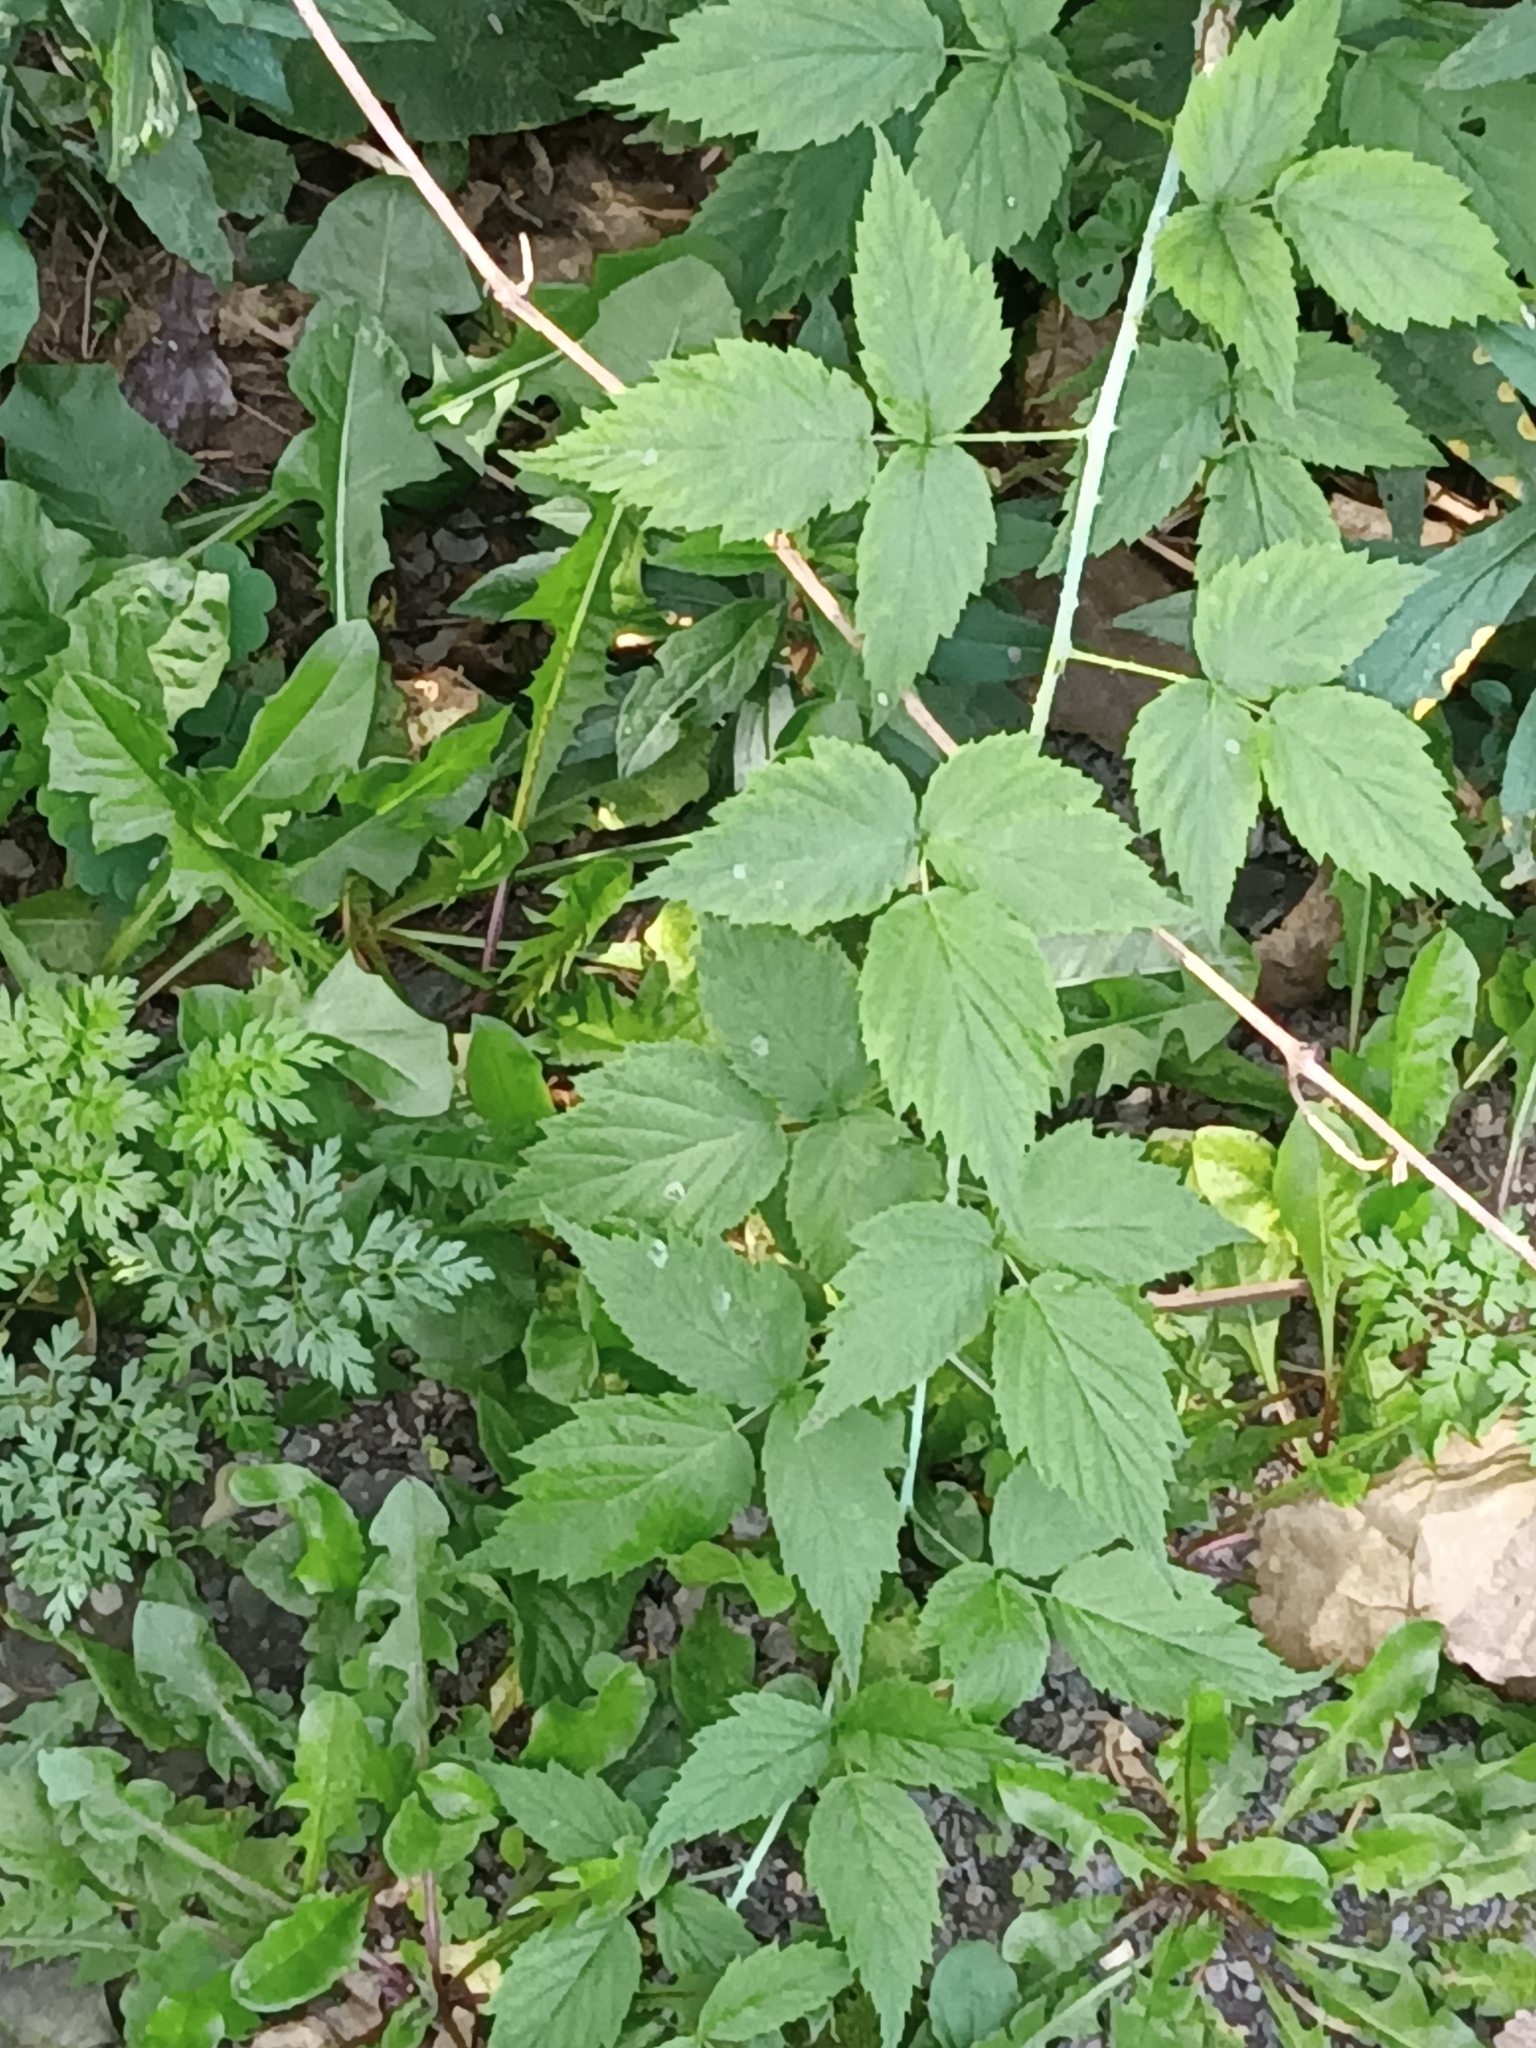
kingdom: Plantae
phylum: Tracheophyta
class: Magnoliopsida
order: Rosales
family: Rosaceae
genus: Rubus
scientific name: Rubus occidentalis
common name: Black raspberry
